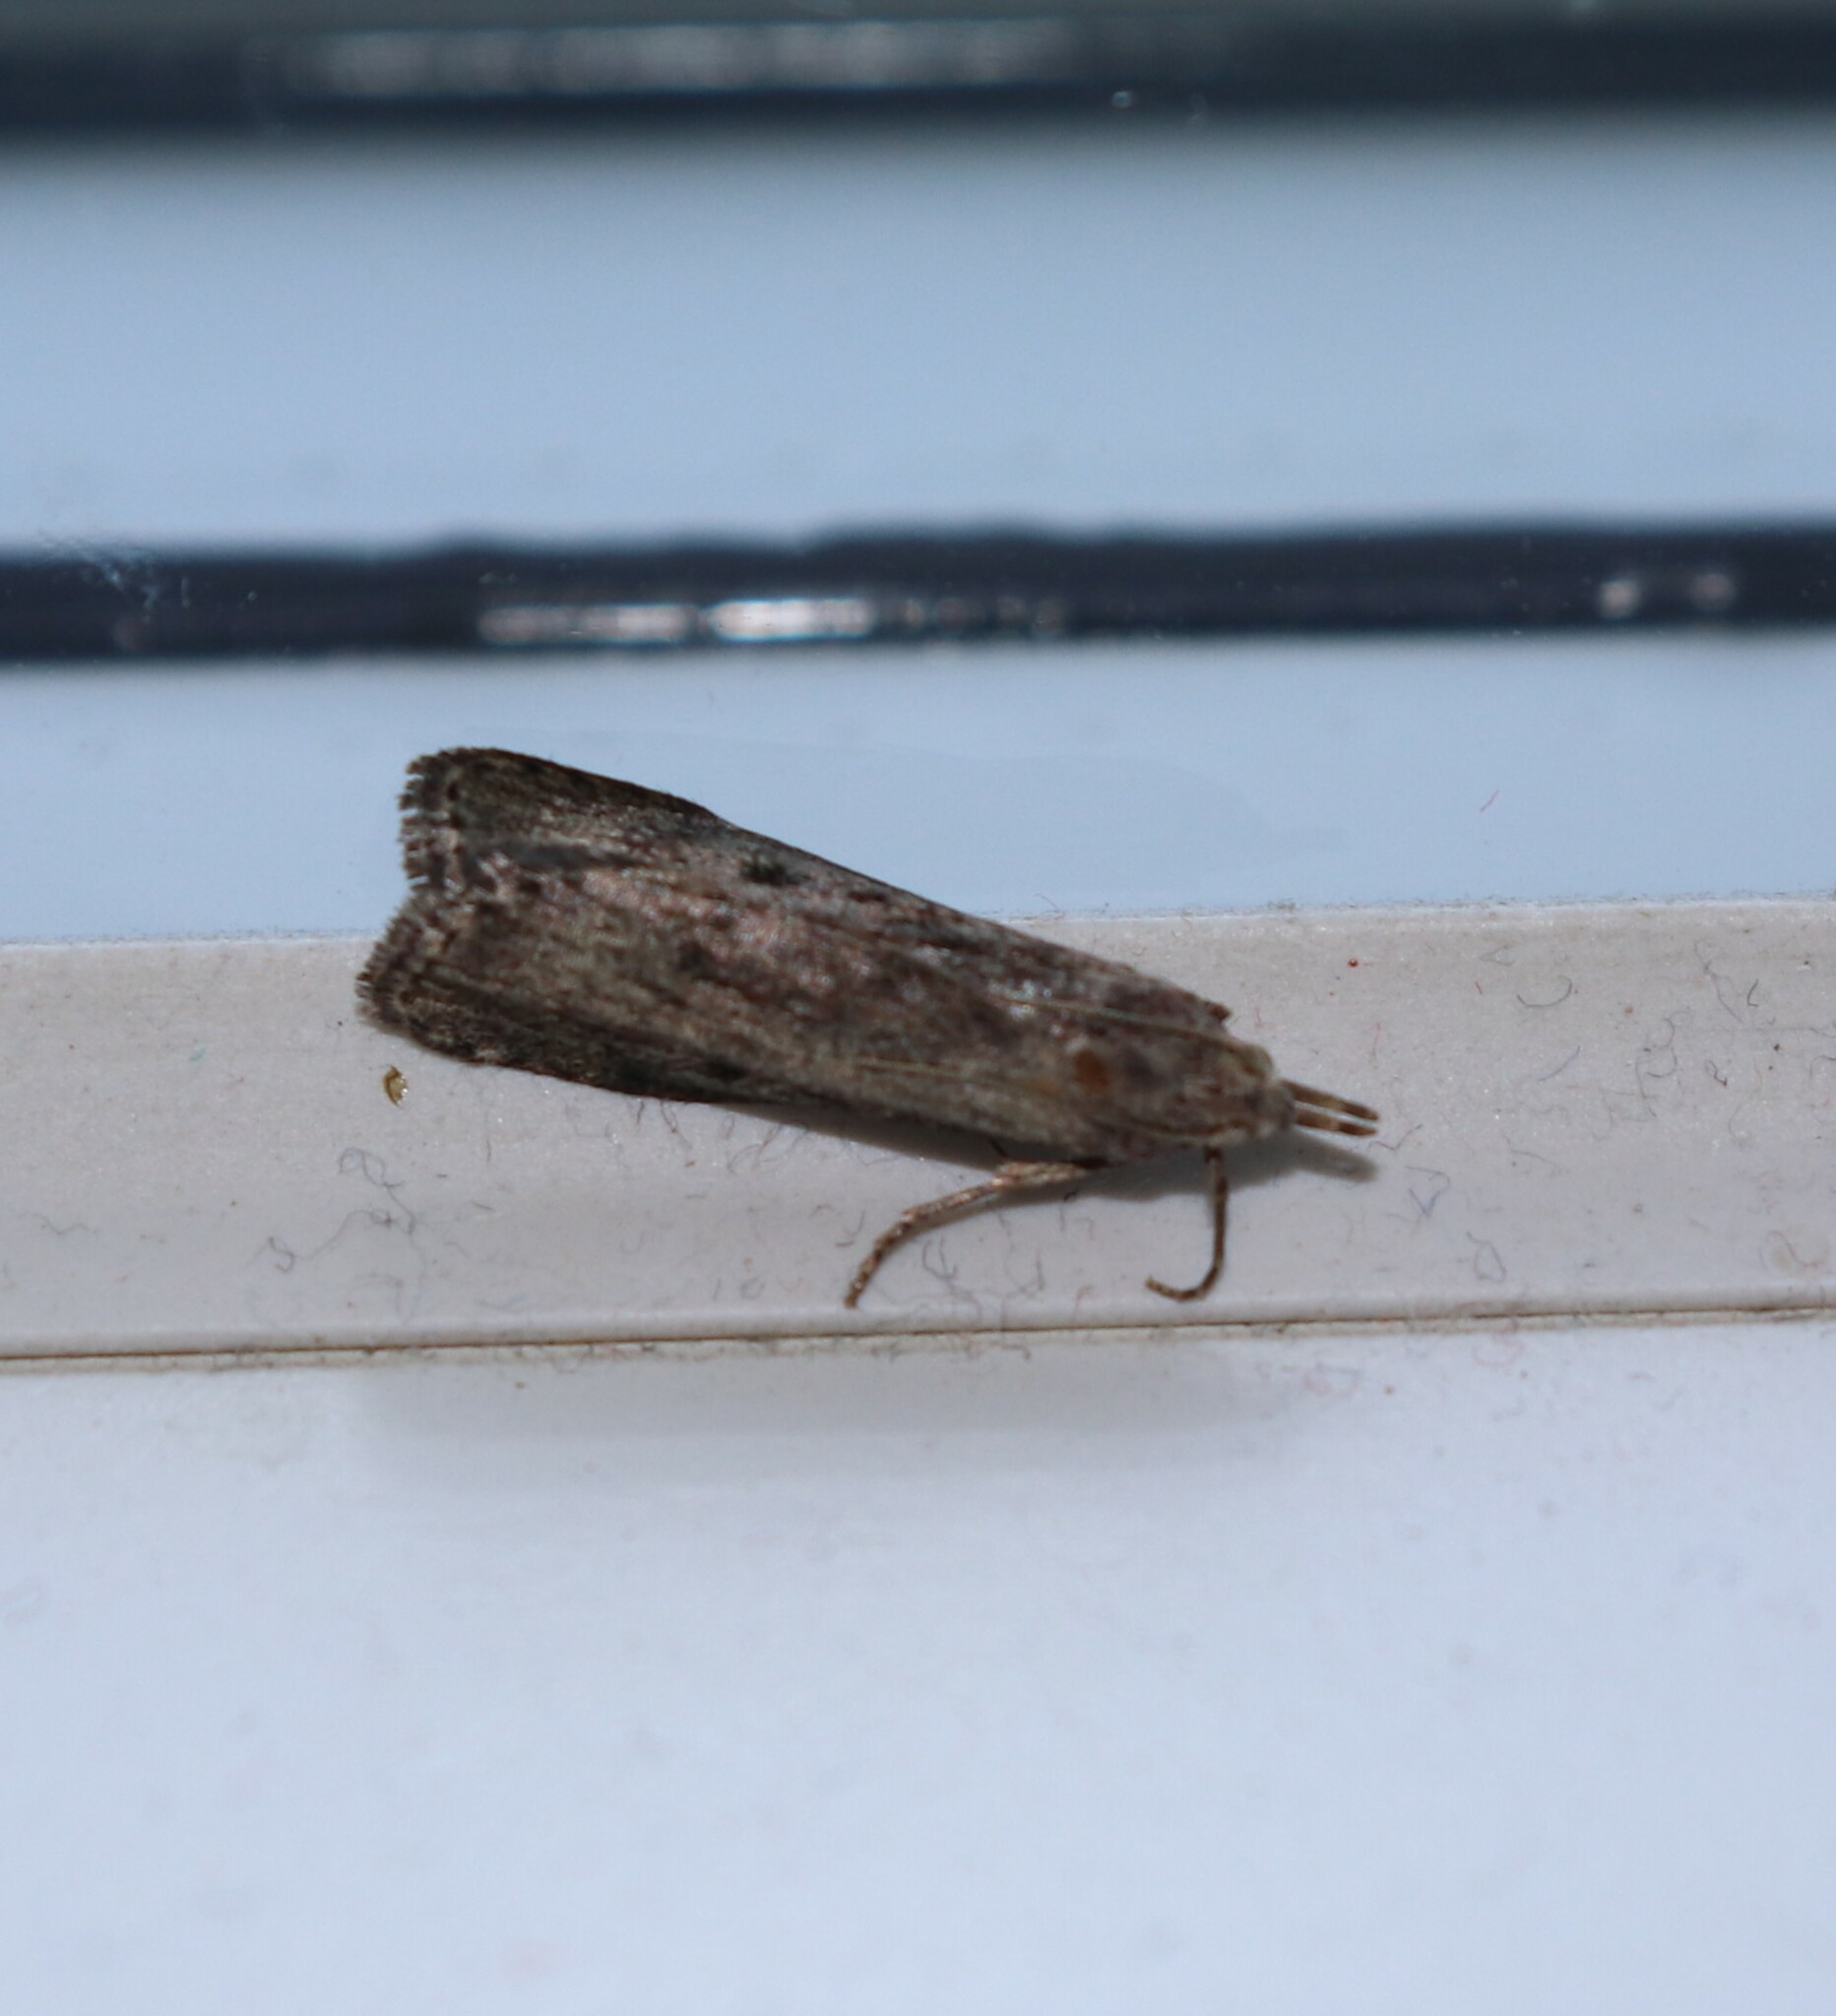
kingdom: Animalia
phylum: Arthropoda
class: Insecta
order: Lepidoptera
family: Pyralidae
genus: Aphomia
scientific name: Aphomia sociella
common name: Bee moth
